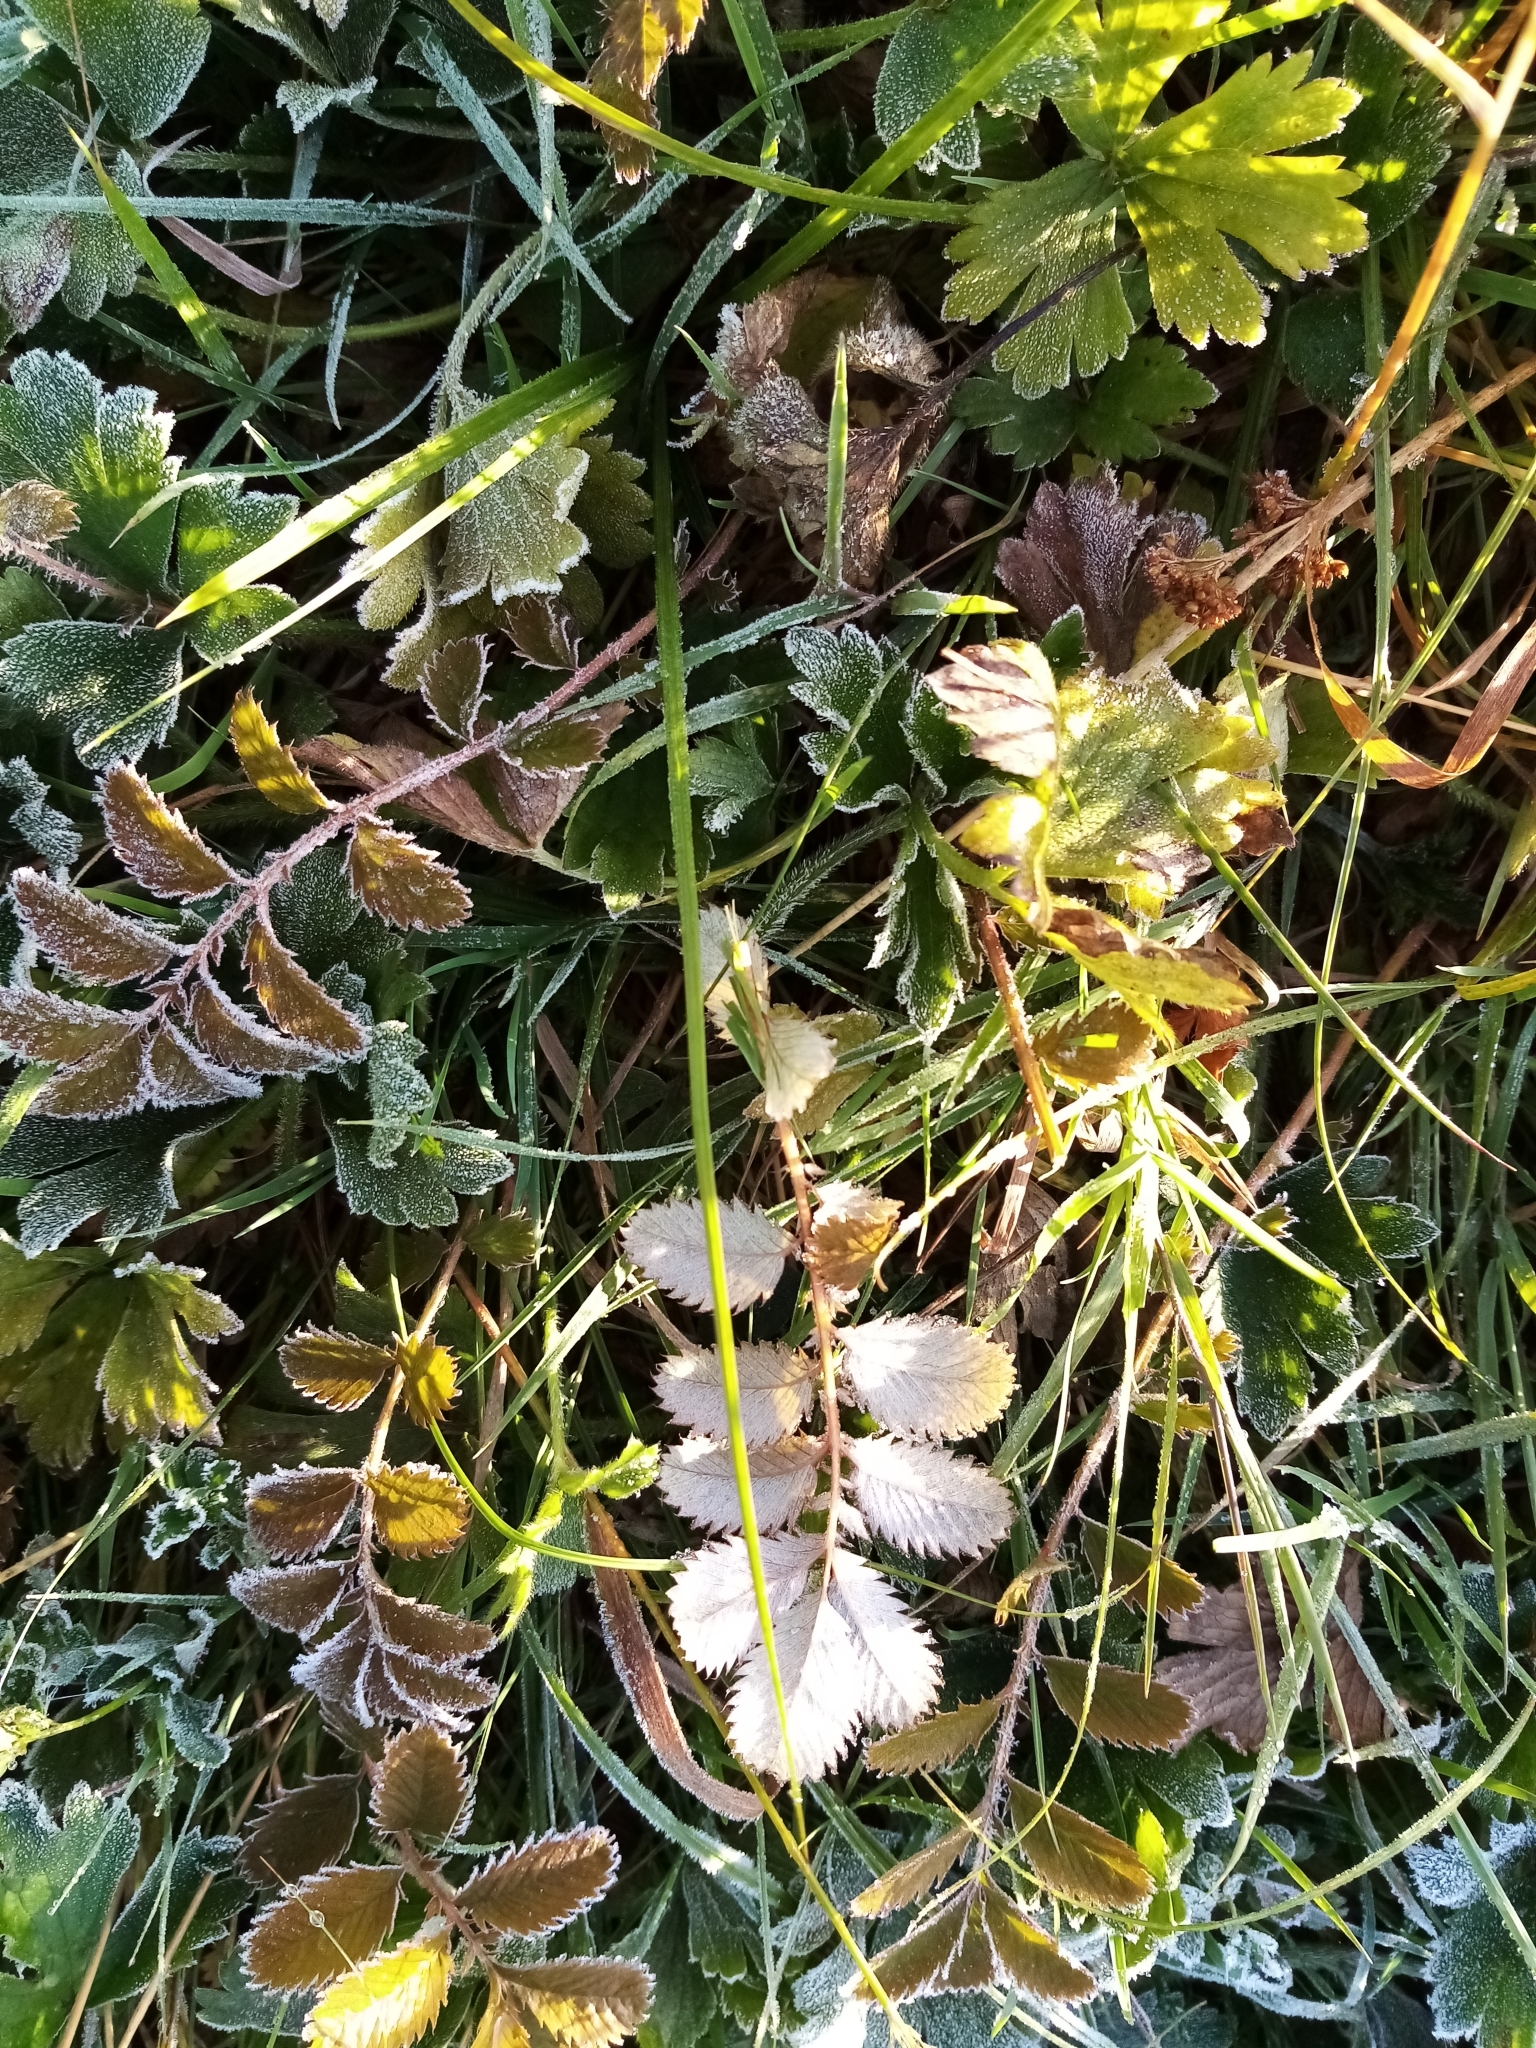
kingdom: Plantae
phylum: Tracheophyta
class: Magnoliopsida
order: Rosales
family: Rosaceae
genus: Argentina
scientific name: Argentina anserinoides
